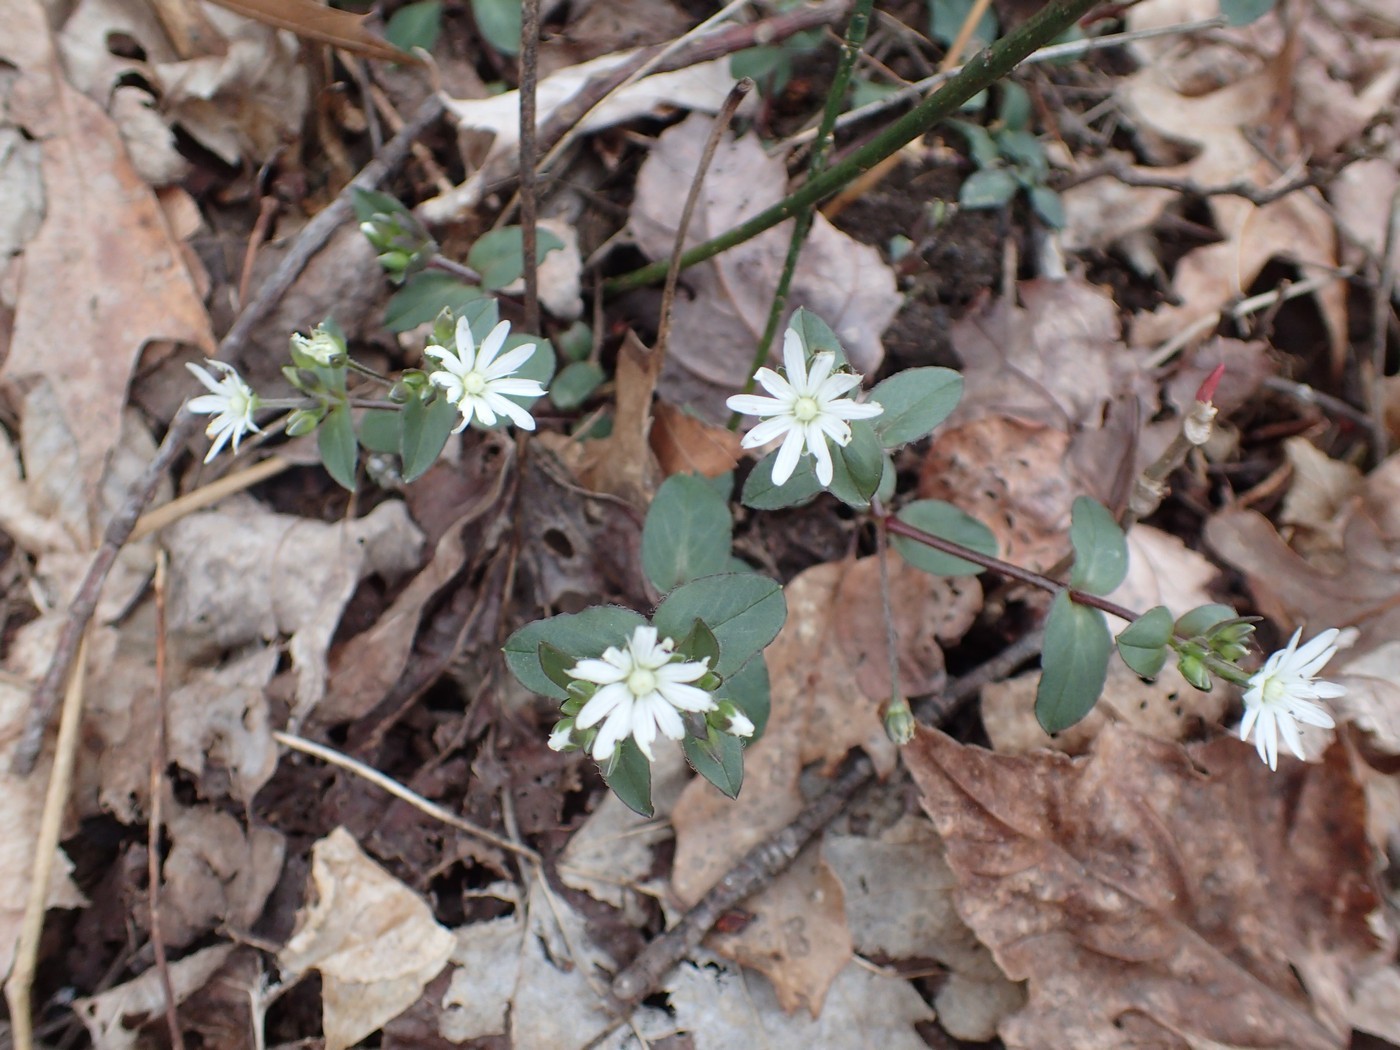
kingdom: Plantae
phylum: Tracheophyta
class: Magnoliopsida
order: Caryophyllales
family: Caryophyllaceae
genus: Stellaria
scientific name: Stellaria pubera
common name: Star chickweed
